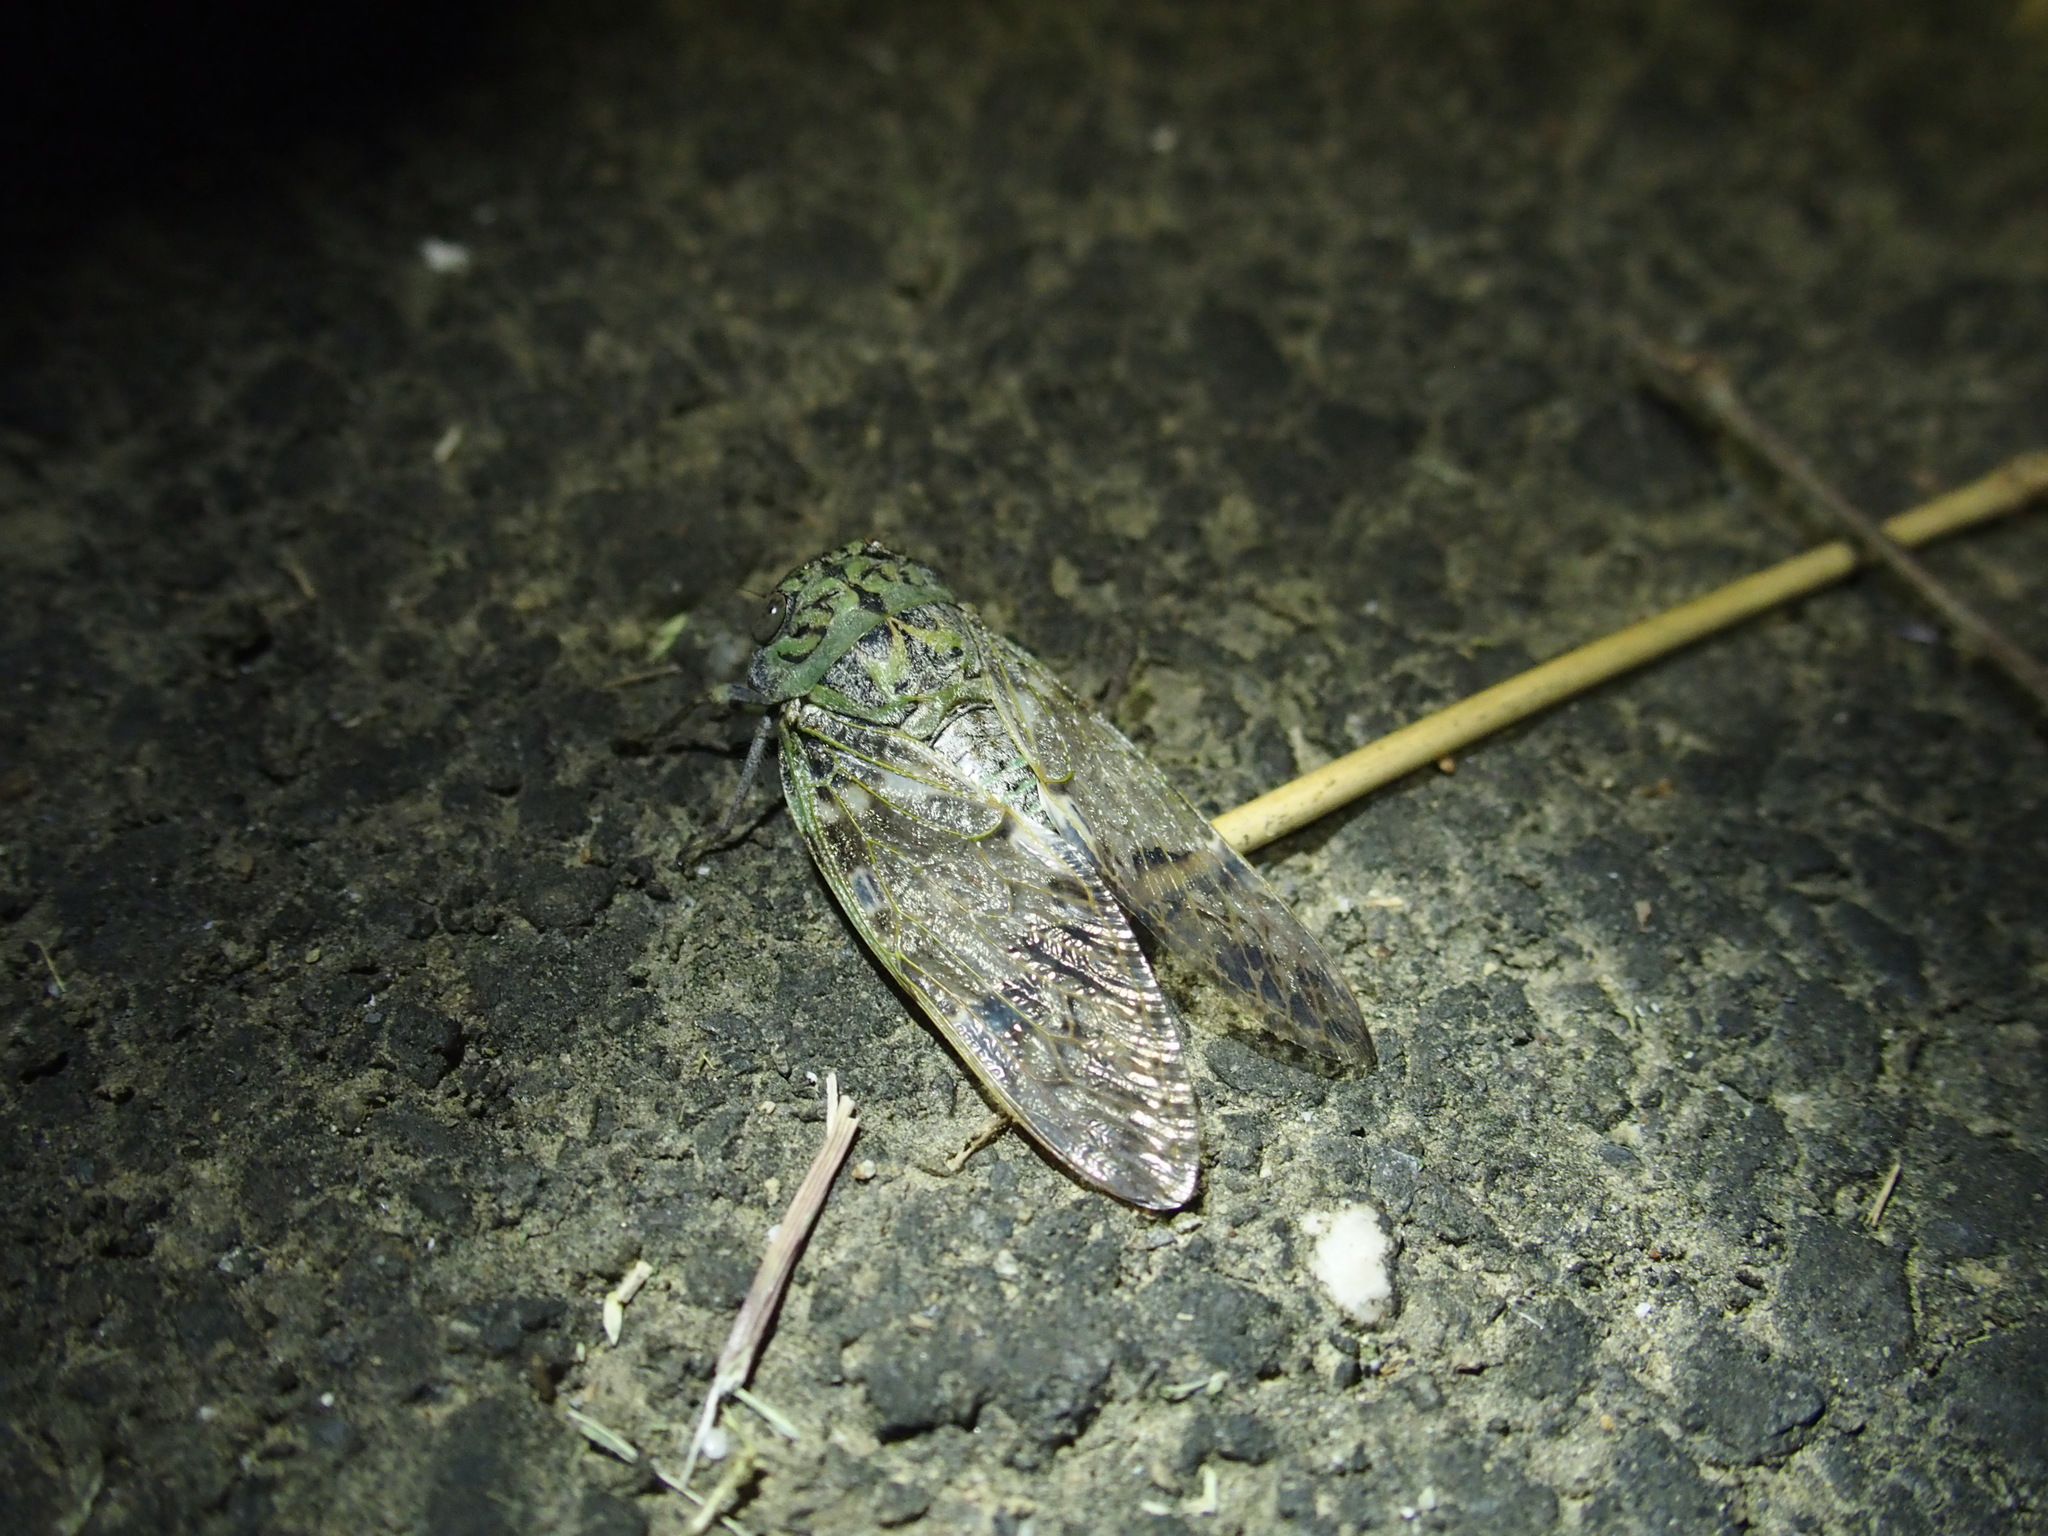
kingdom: Animalia
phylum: Arthropoda
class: Insecta
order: Hemiptera
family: Cicadidae
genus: Platypleura
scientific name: Platypleura takasagona
